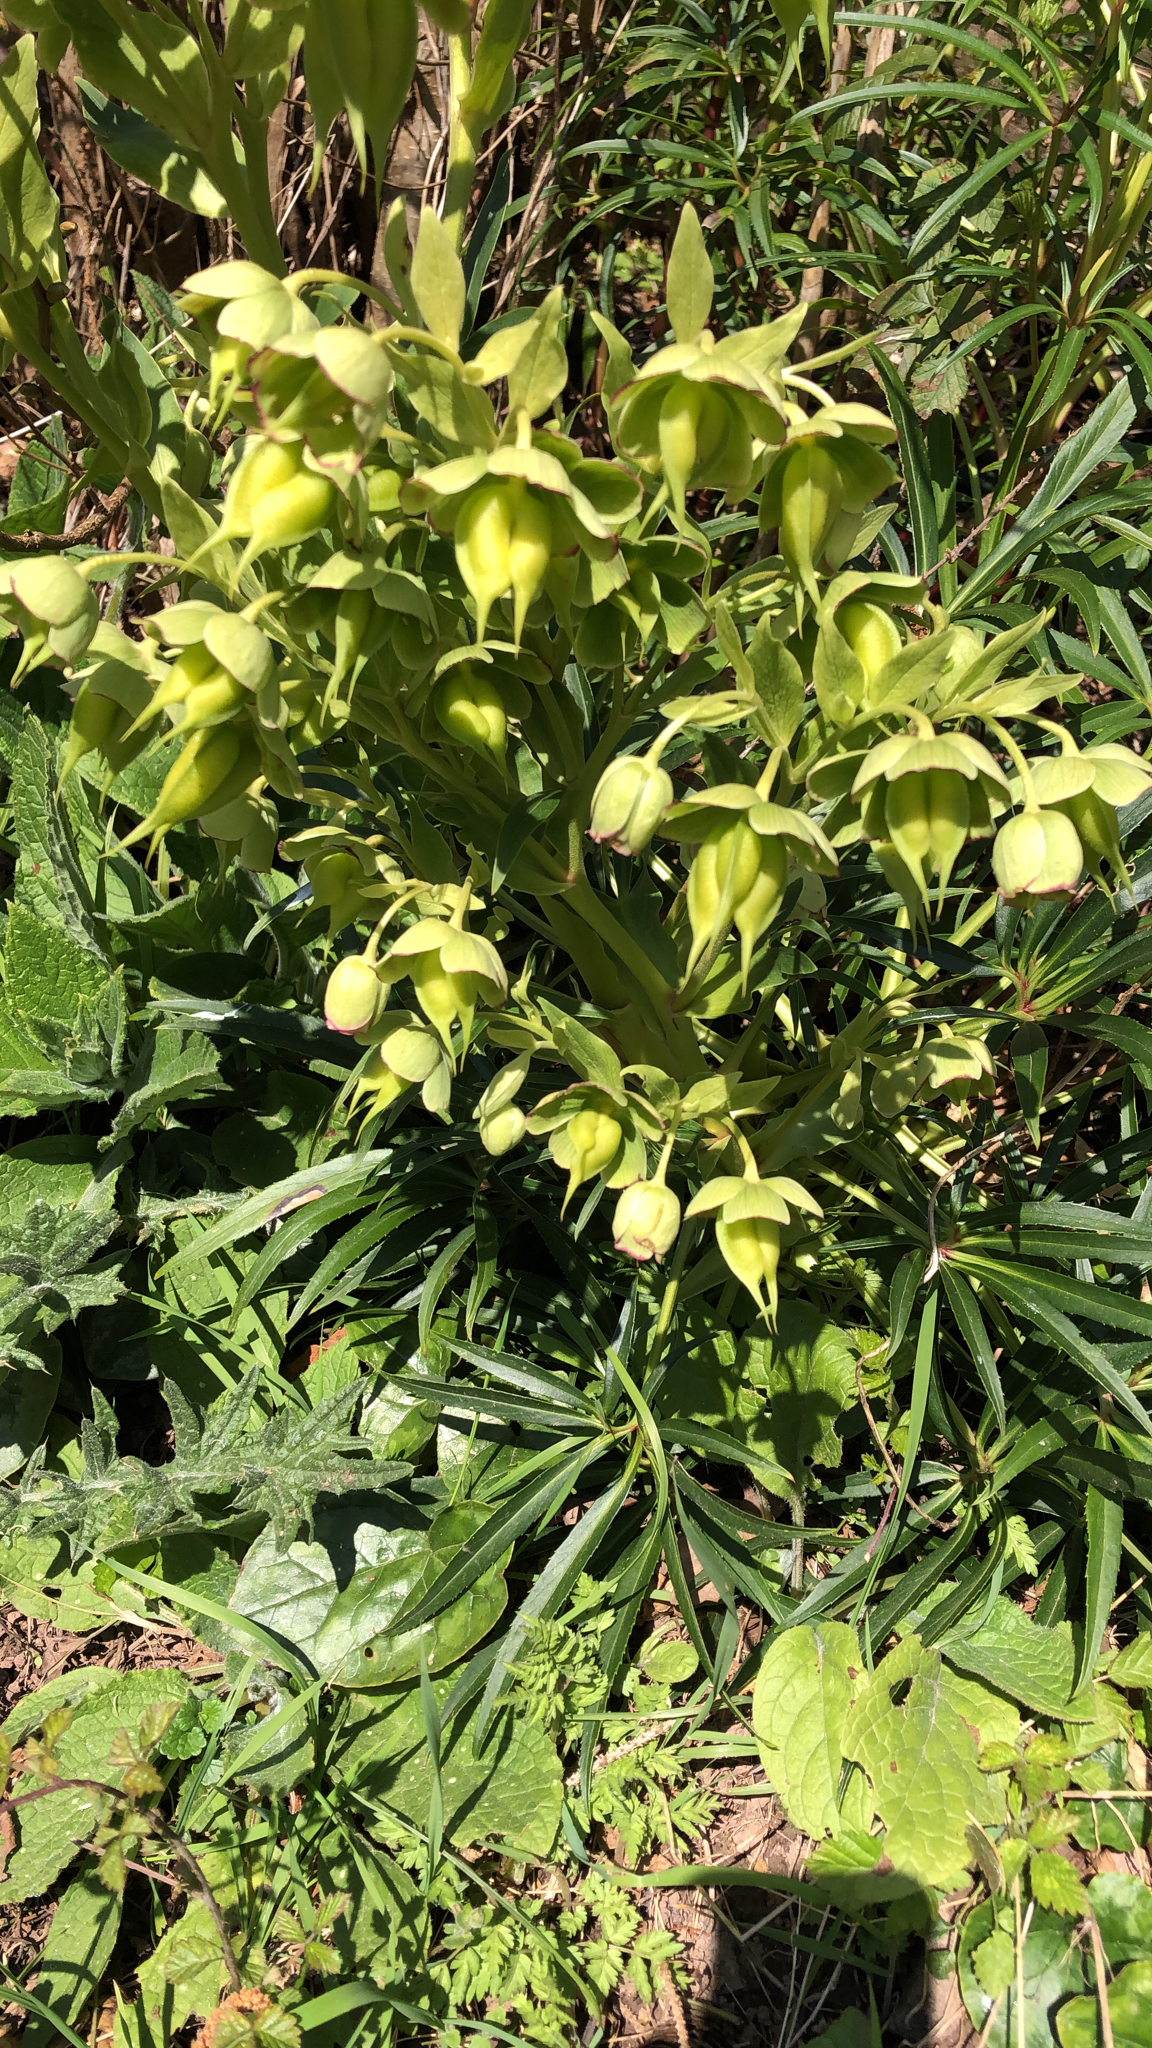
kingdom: Plantae
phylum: Tracheophyta
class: Magnoliopsida
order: Ranunculales
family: Ranunculaceae
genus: Helleborus
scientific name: Helleborus foetidus
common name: Stinking hellebore
